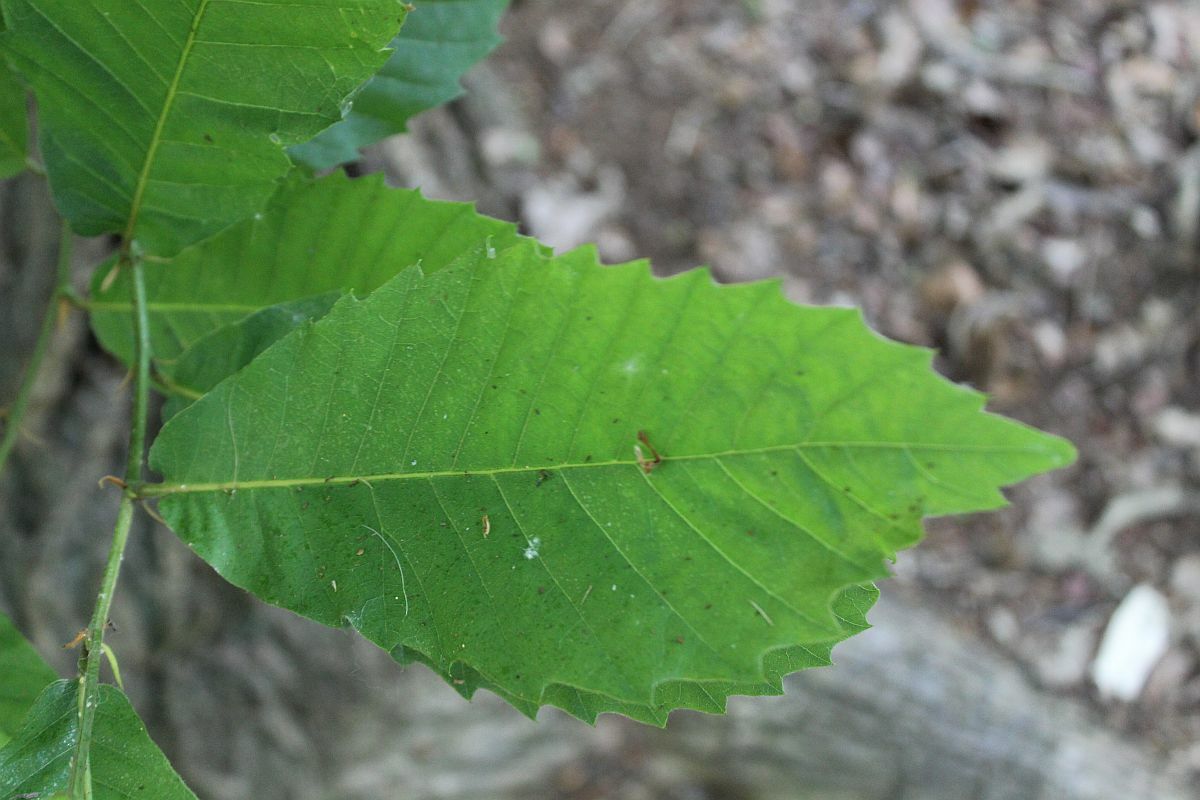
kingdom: Plantae
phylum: Tracheophyta
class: Magnoliopsida
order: Fagales
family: Fagaceae
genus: Castanea
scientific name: Castanea sativa
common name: Sweet chestnut
